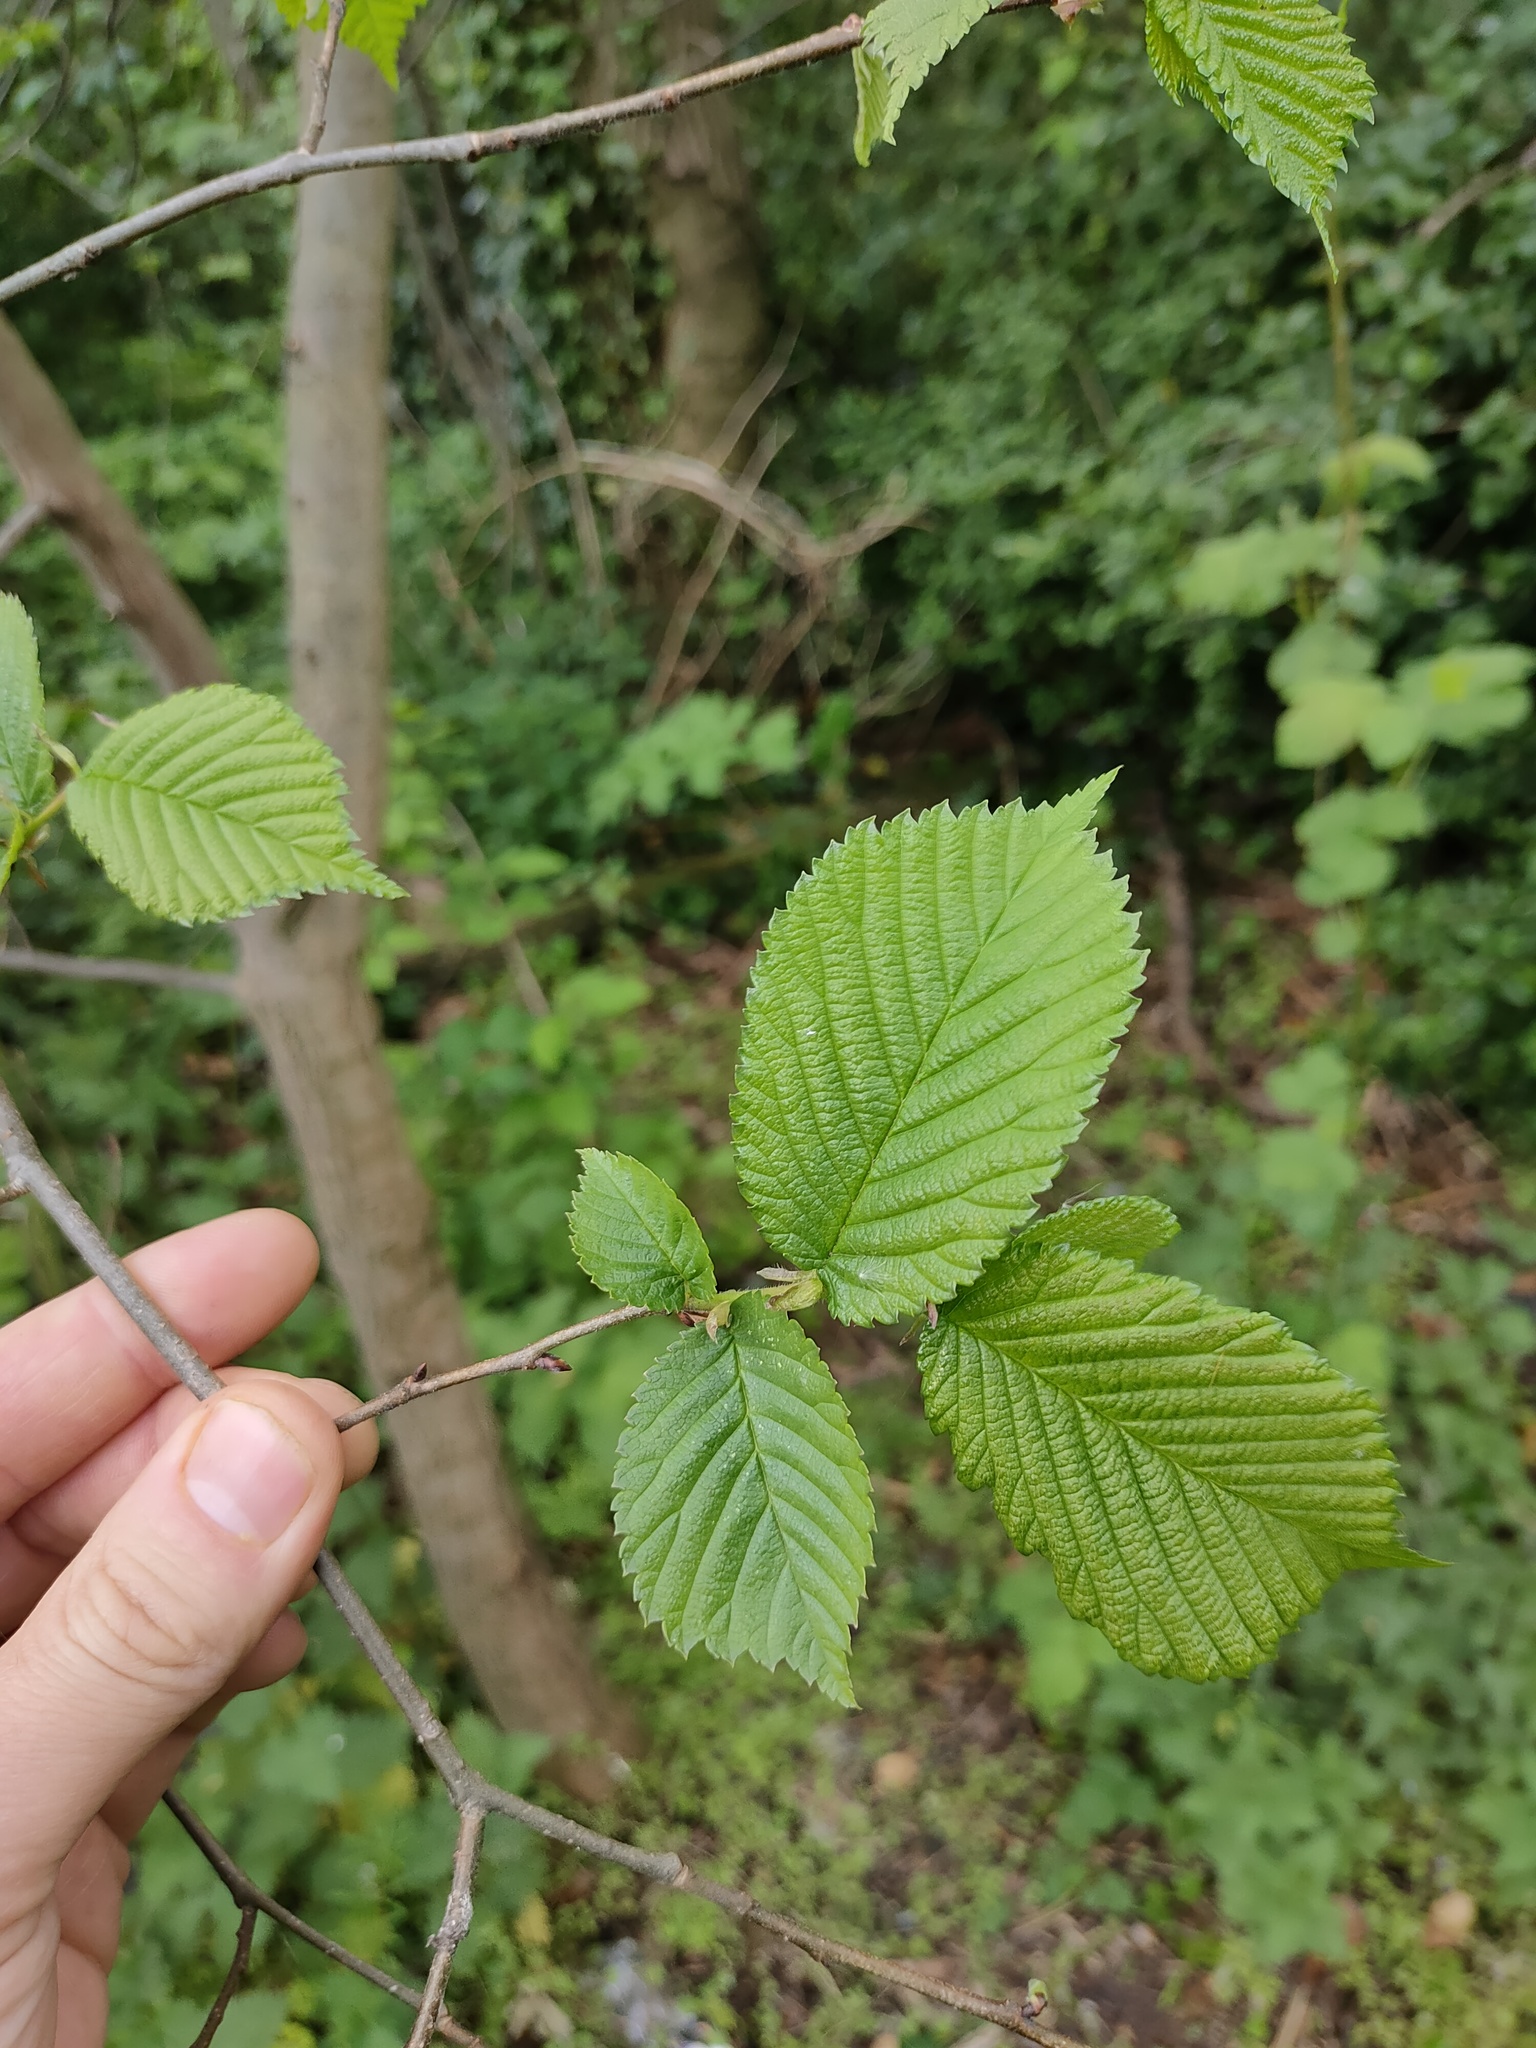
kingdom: Plantae
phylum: Tracheophyta
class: Magnoliopsida
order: Rosales
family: Ulmaceae
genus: Ulmus
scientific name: Ulmus glabra
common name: Wych elm
